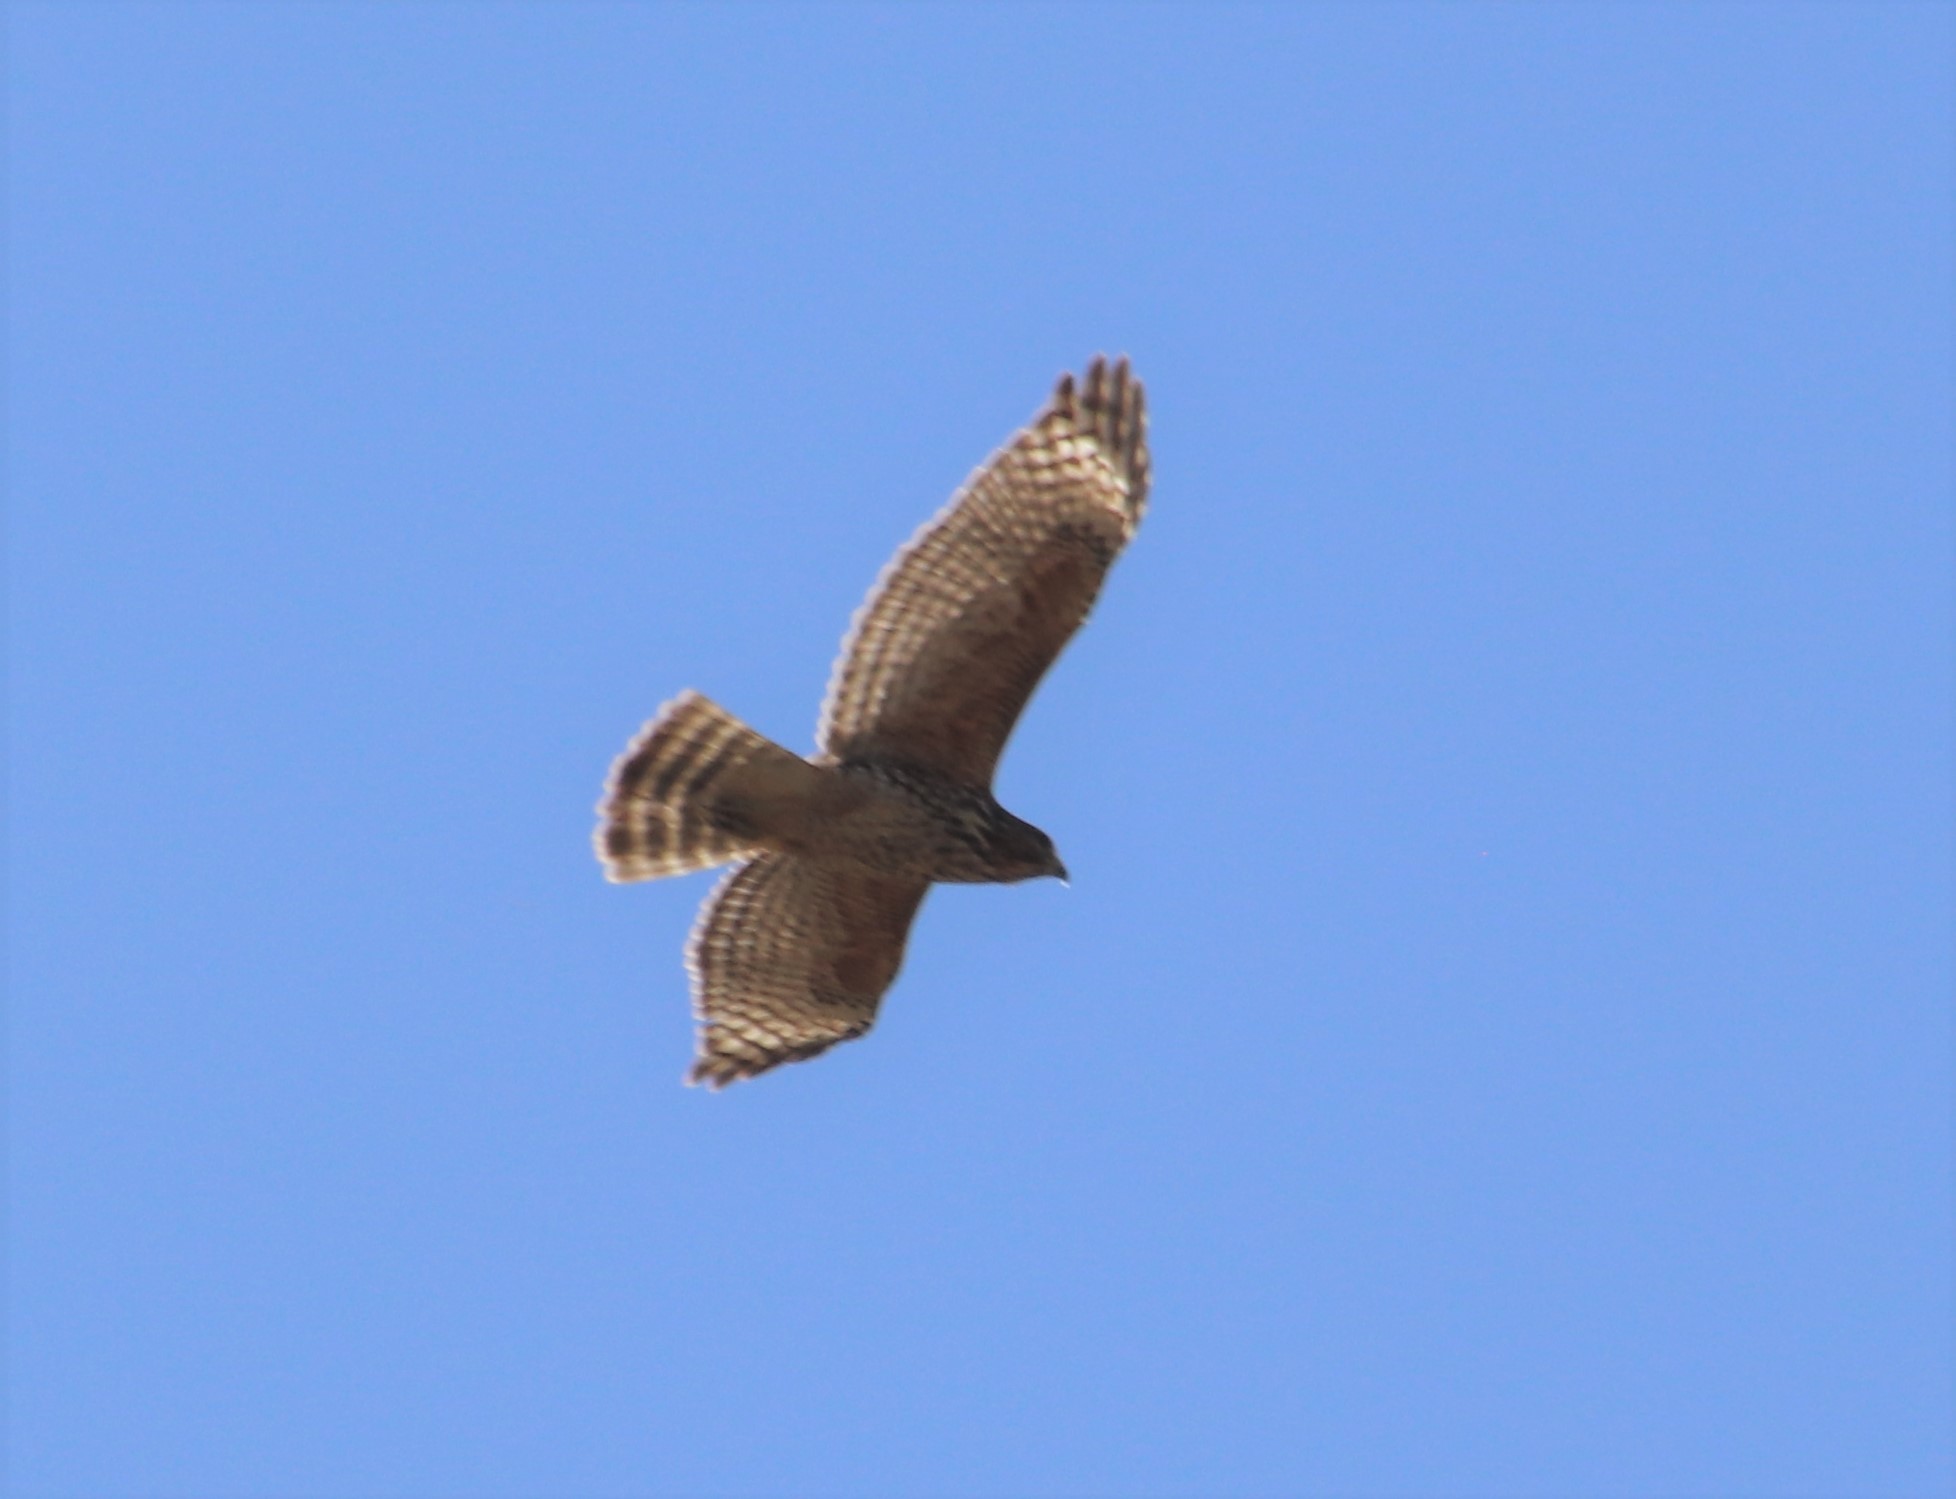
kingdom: Animalia
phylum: Chordata
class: Aves
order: Accipitriformes
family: Accipitridae
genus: Buteo
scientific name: Buteo lineatus
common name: Red-shouldered hawk
